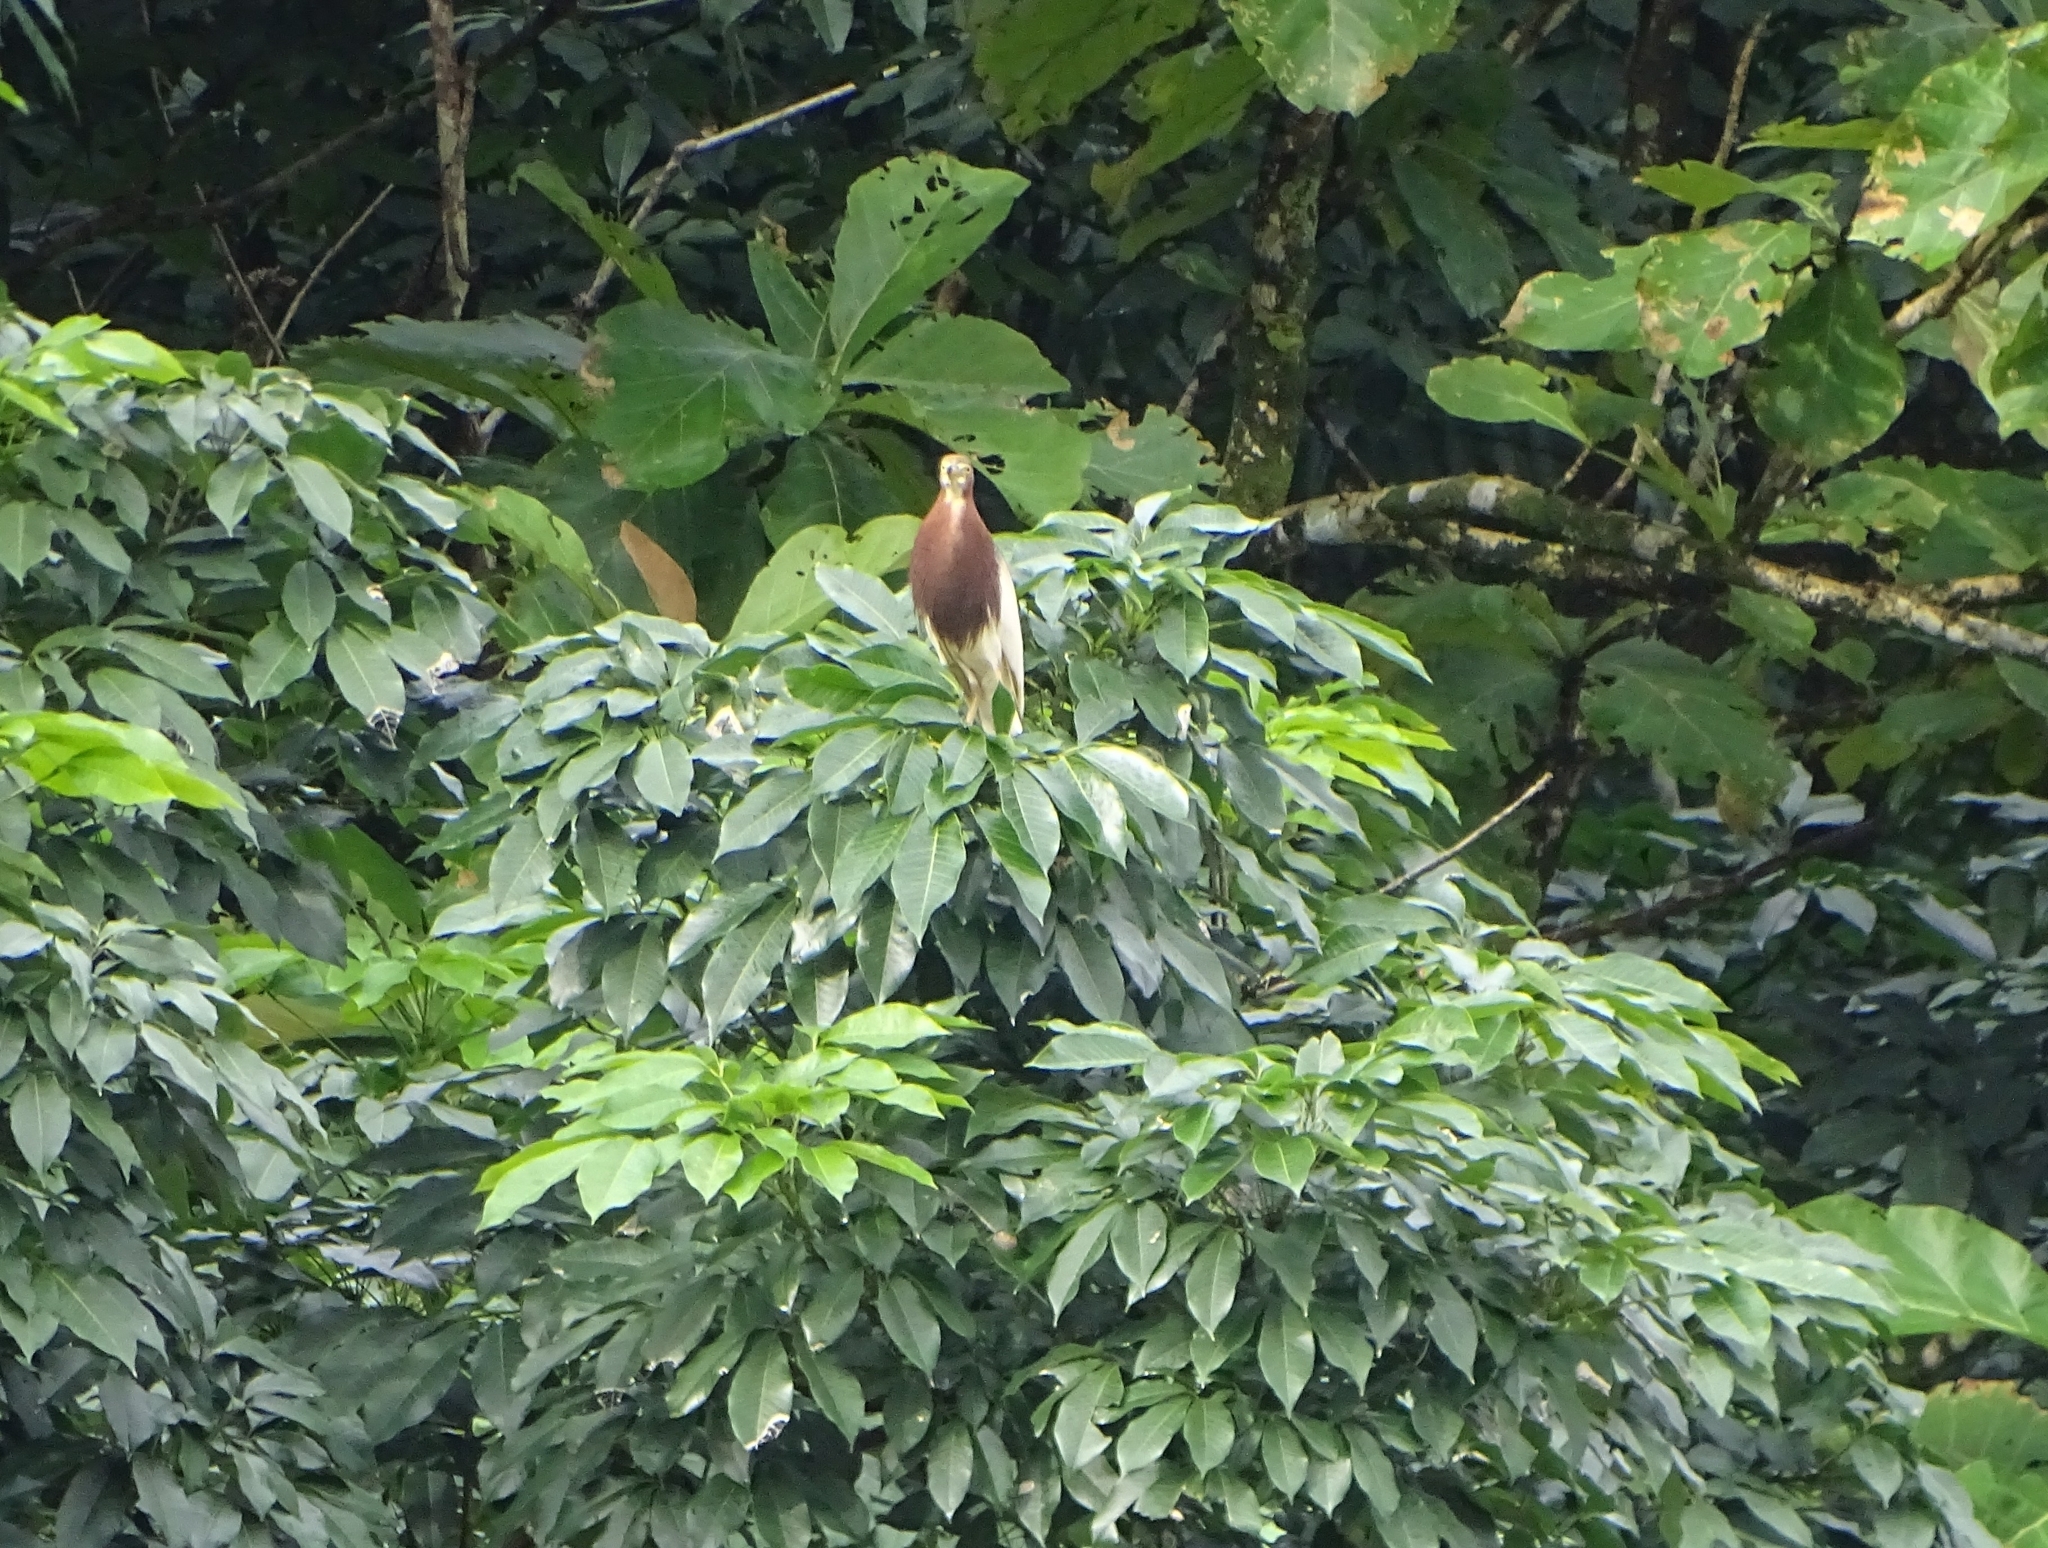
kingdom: Animalia
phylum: Chordata
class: Aves
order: Pelecaniformes
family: Ardeidae
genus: Ardeola
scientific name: Ardeola bacchus
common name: Chinese pond heron
